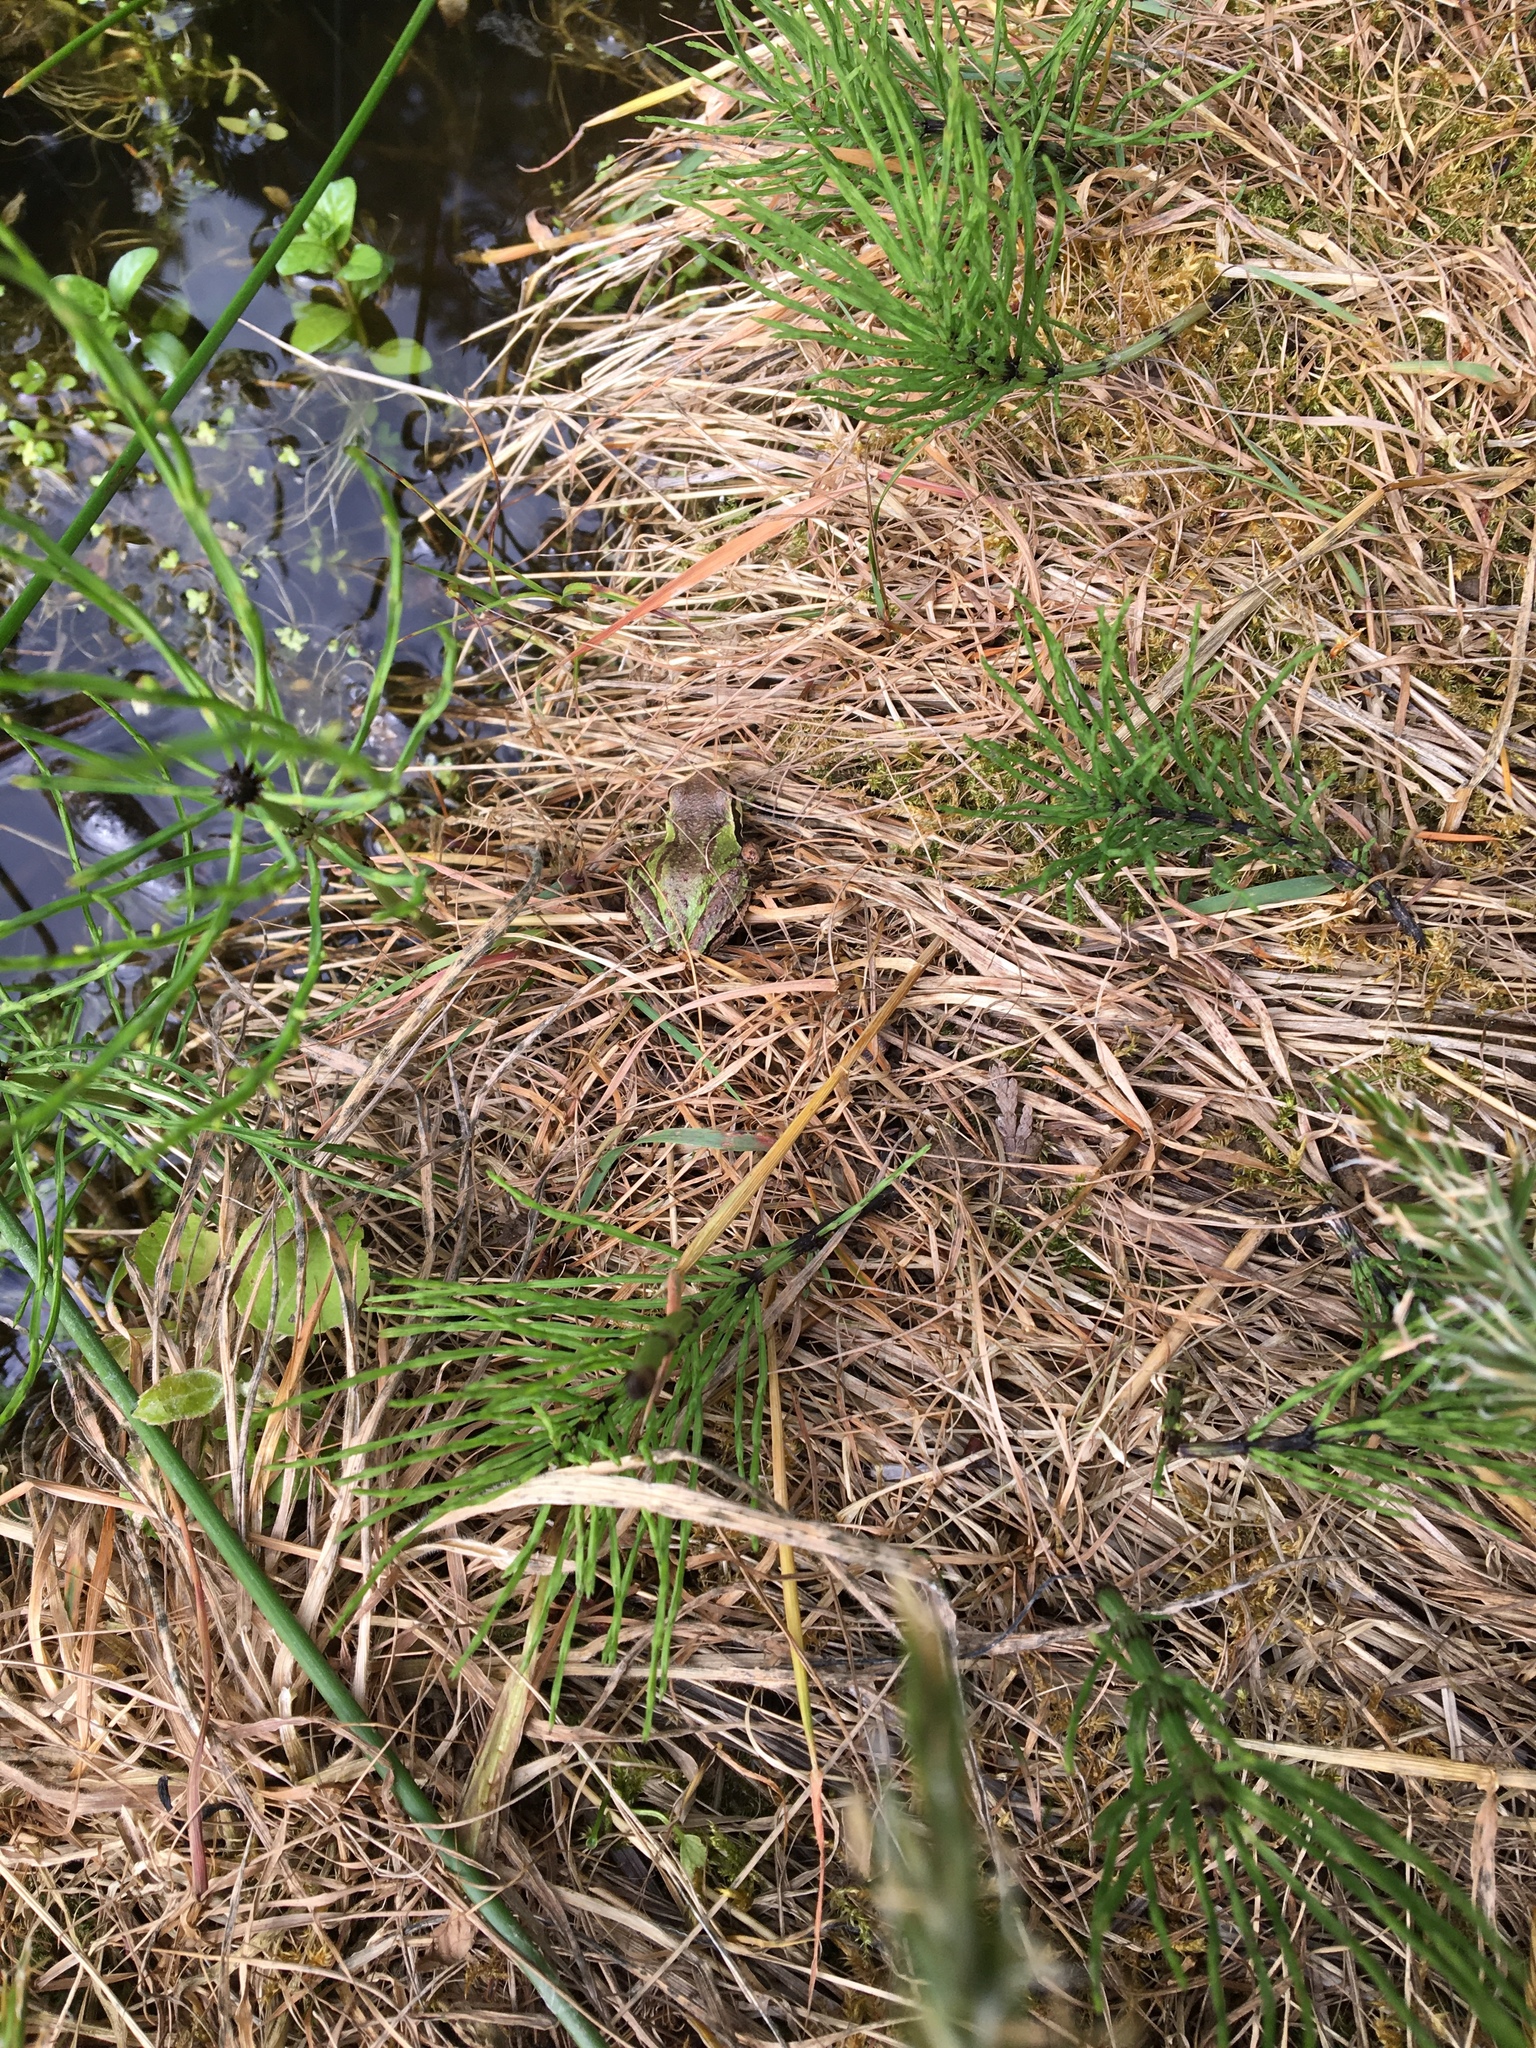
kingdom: Animalia
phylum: Chordata
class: Amphibia
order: Anura
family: Hylidae
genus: Pseudacris
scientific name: Pseudacris regilla
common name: Pacific chorus frog
